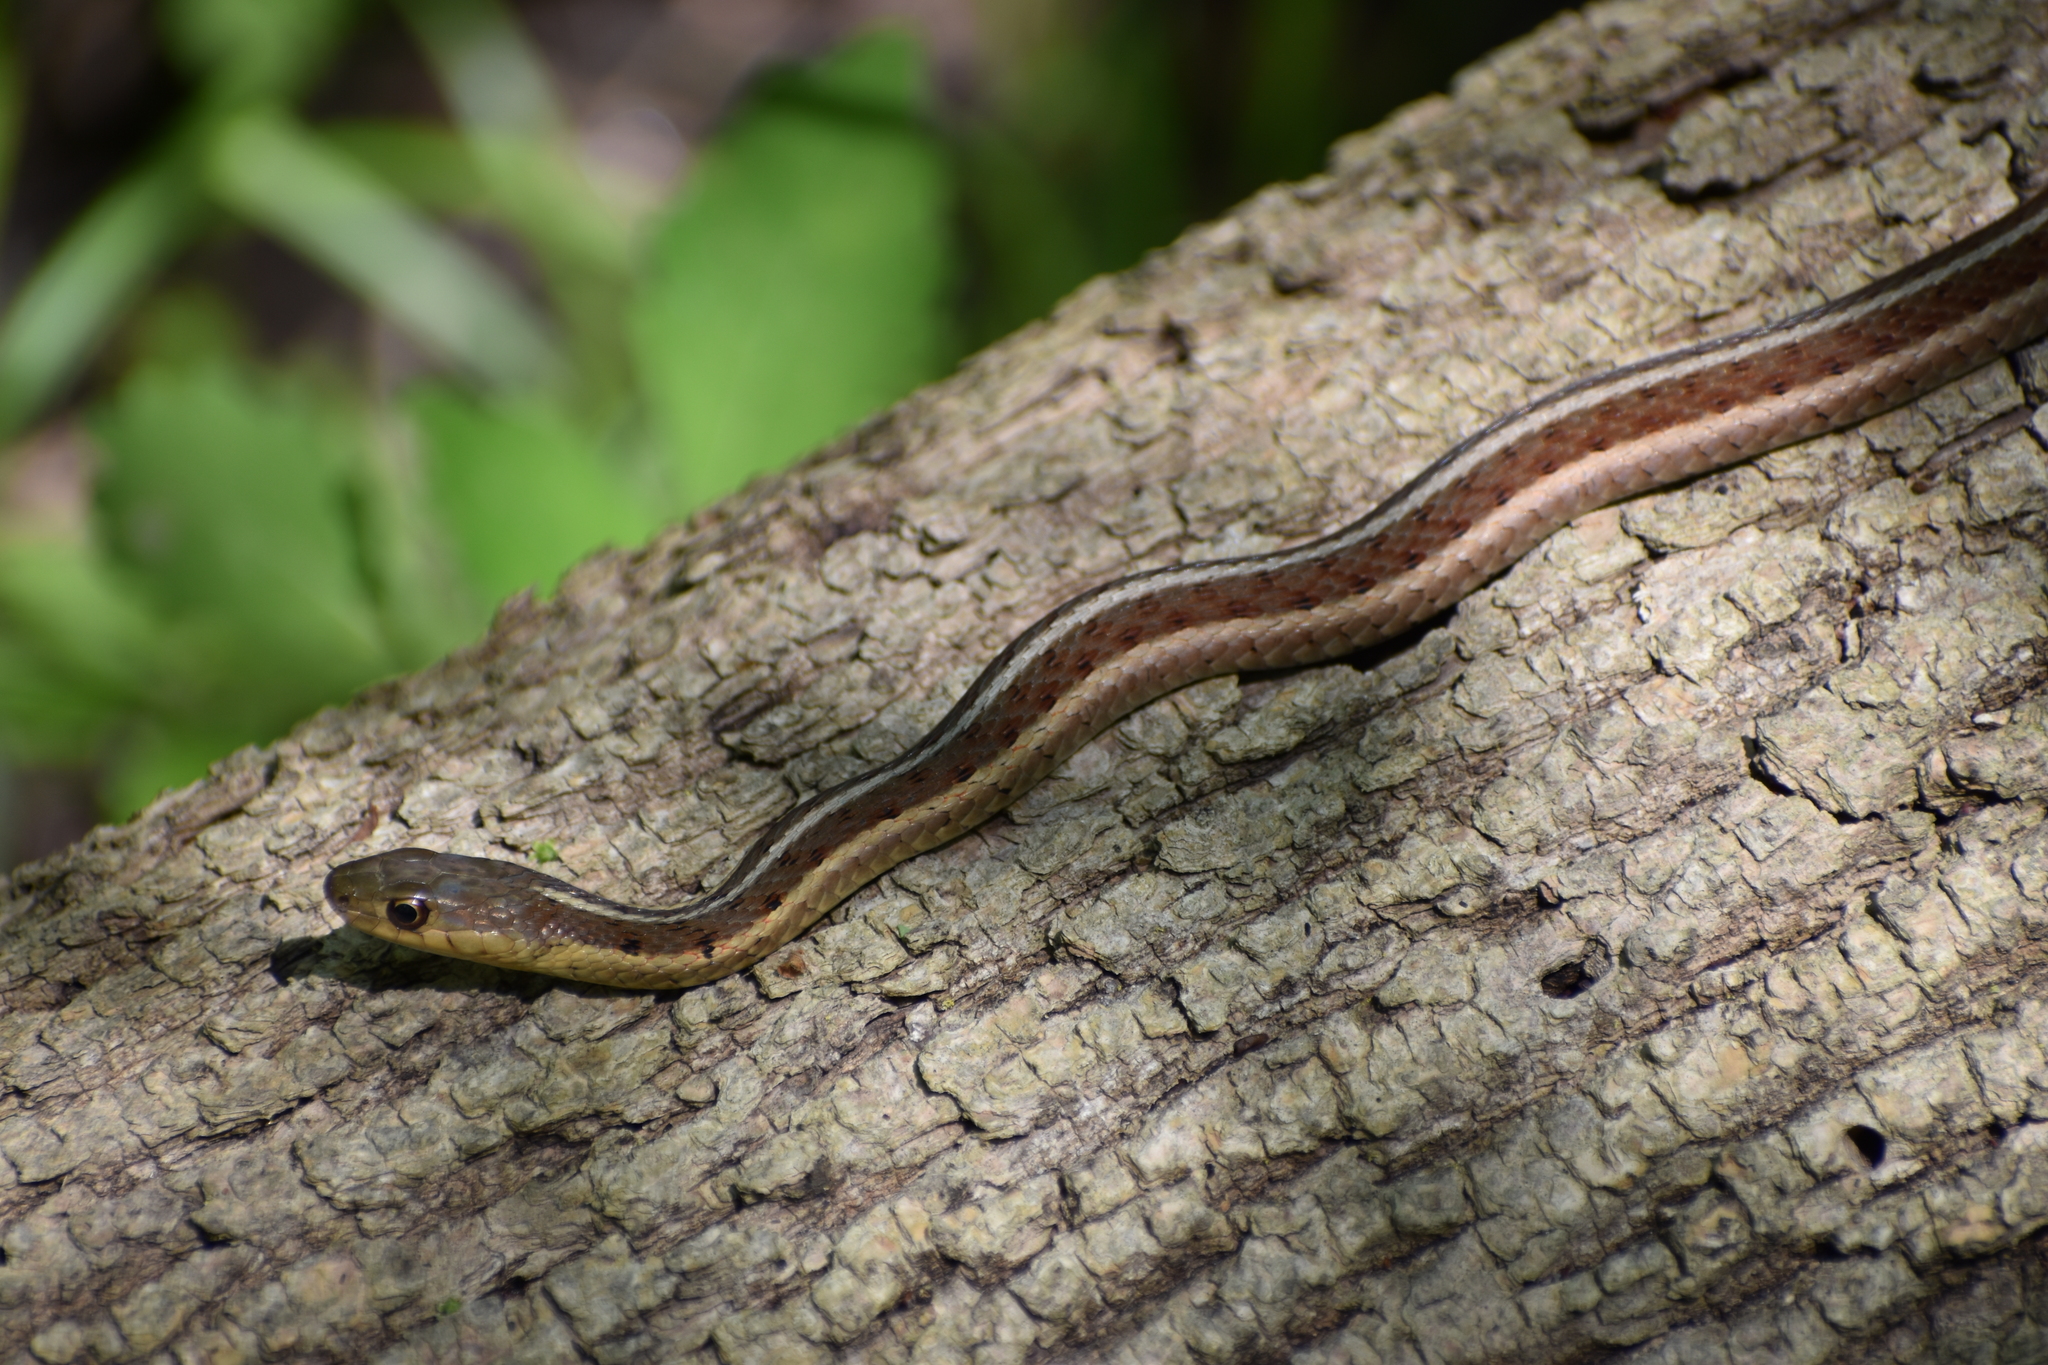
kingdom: Animalia
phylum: Chordata
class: Squamata
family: Colubridae
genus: Thamnophis
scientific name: Thamnophis sirtalis
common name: Common garter snake
